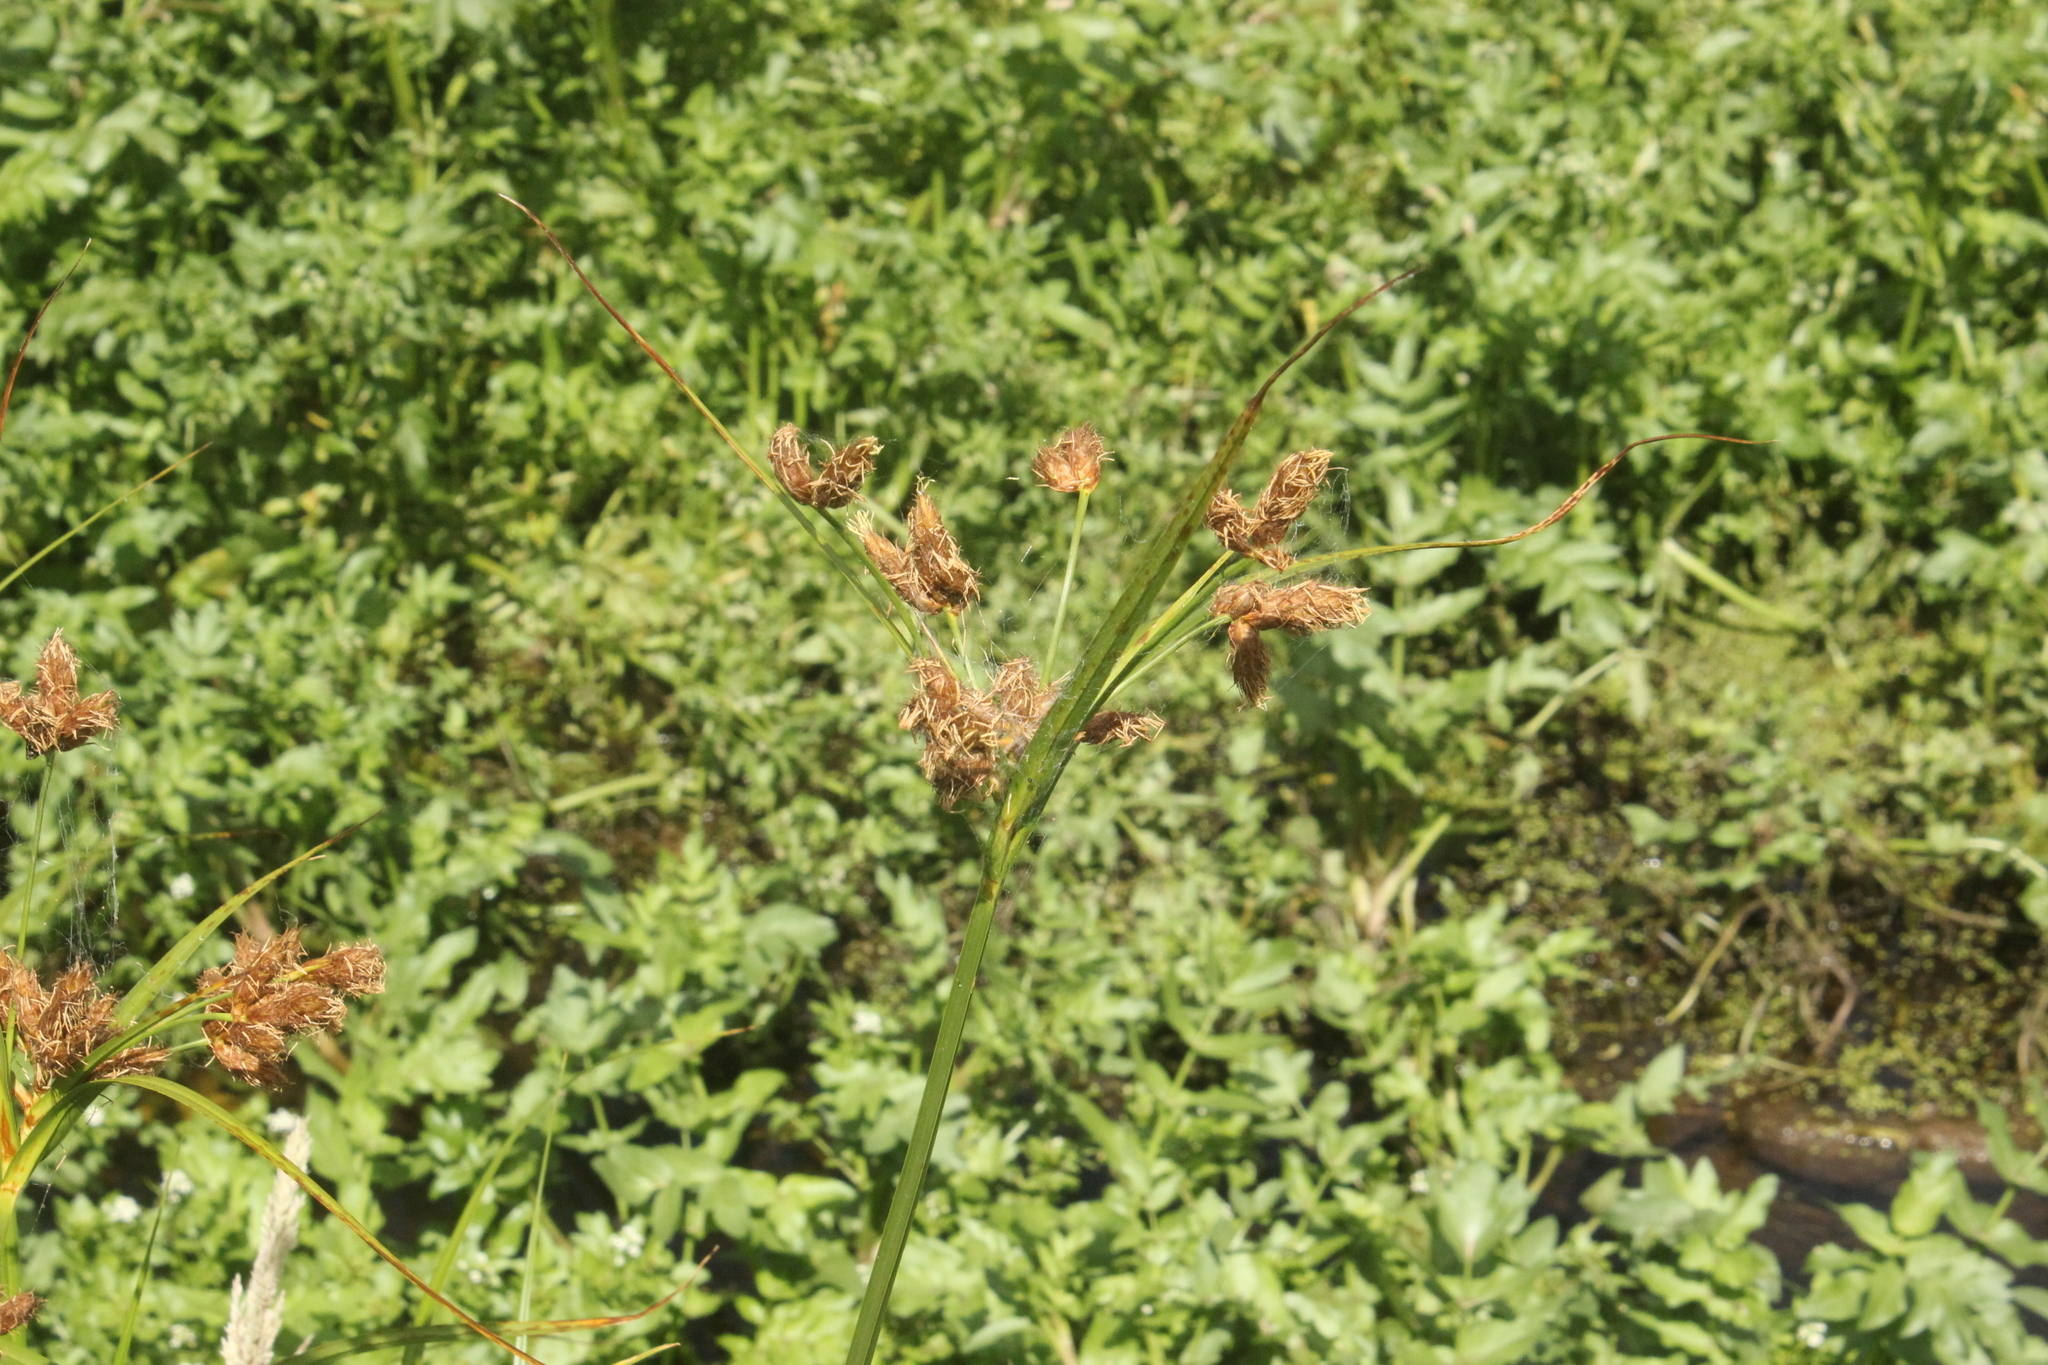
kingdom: Plantae
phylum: Tracheophyta
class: Liliopsida
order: Poales
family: Cyperaceae
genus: Bolboschoenus
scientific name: Bolboschoenus fluviatilis
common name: River bulrush
